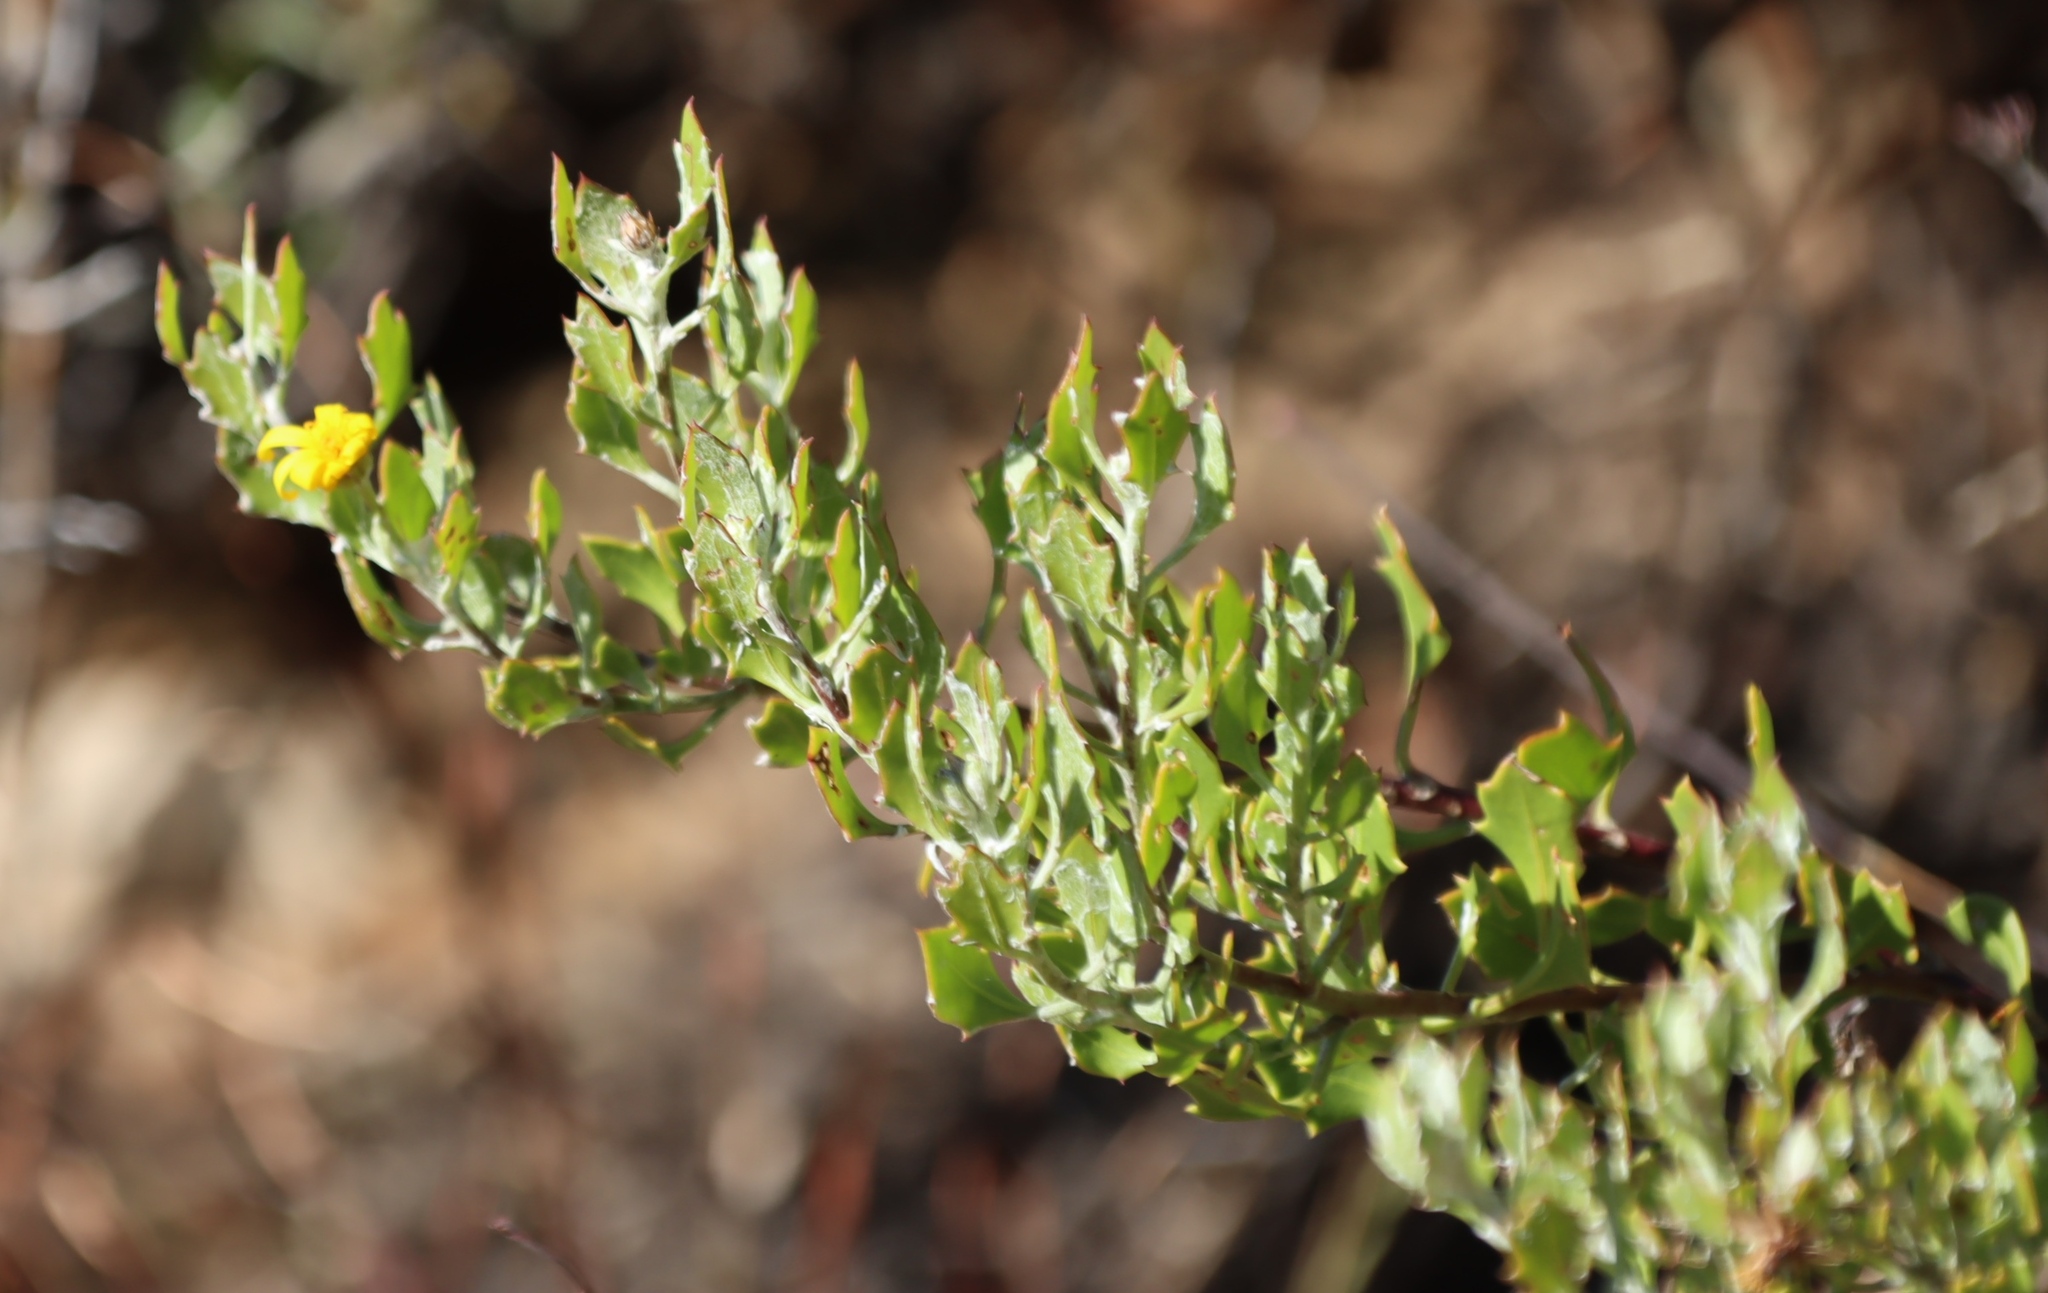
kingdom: Plantae
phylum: Tracheophyta
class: Magnoliopsida
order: Asterales
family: Asteraceae
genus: Osteospermum
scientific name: Osteospermum moniliferum
